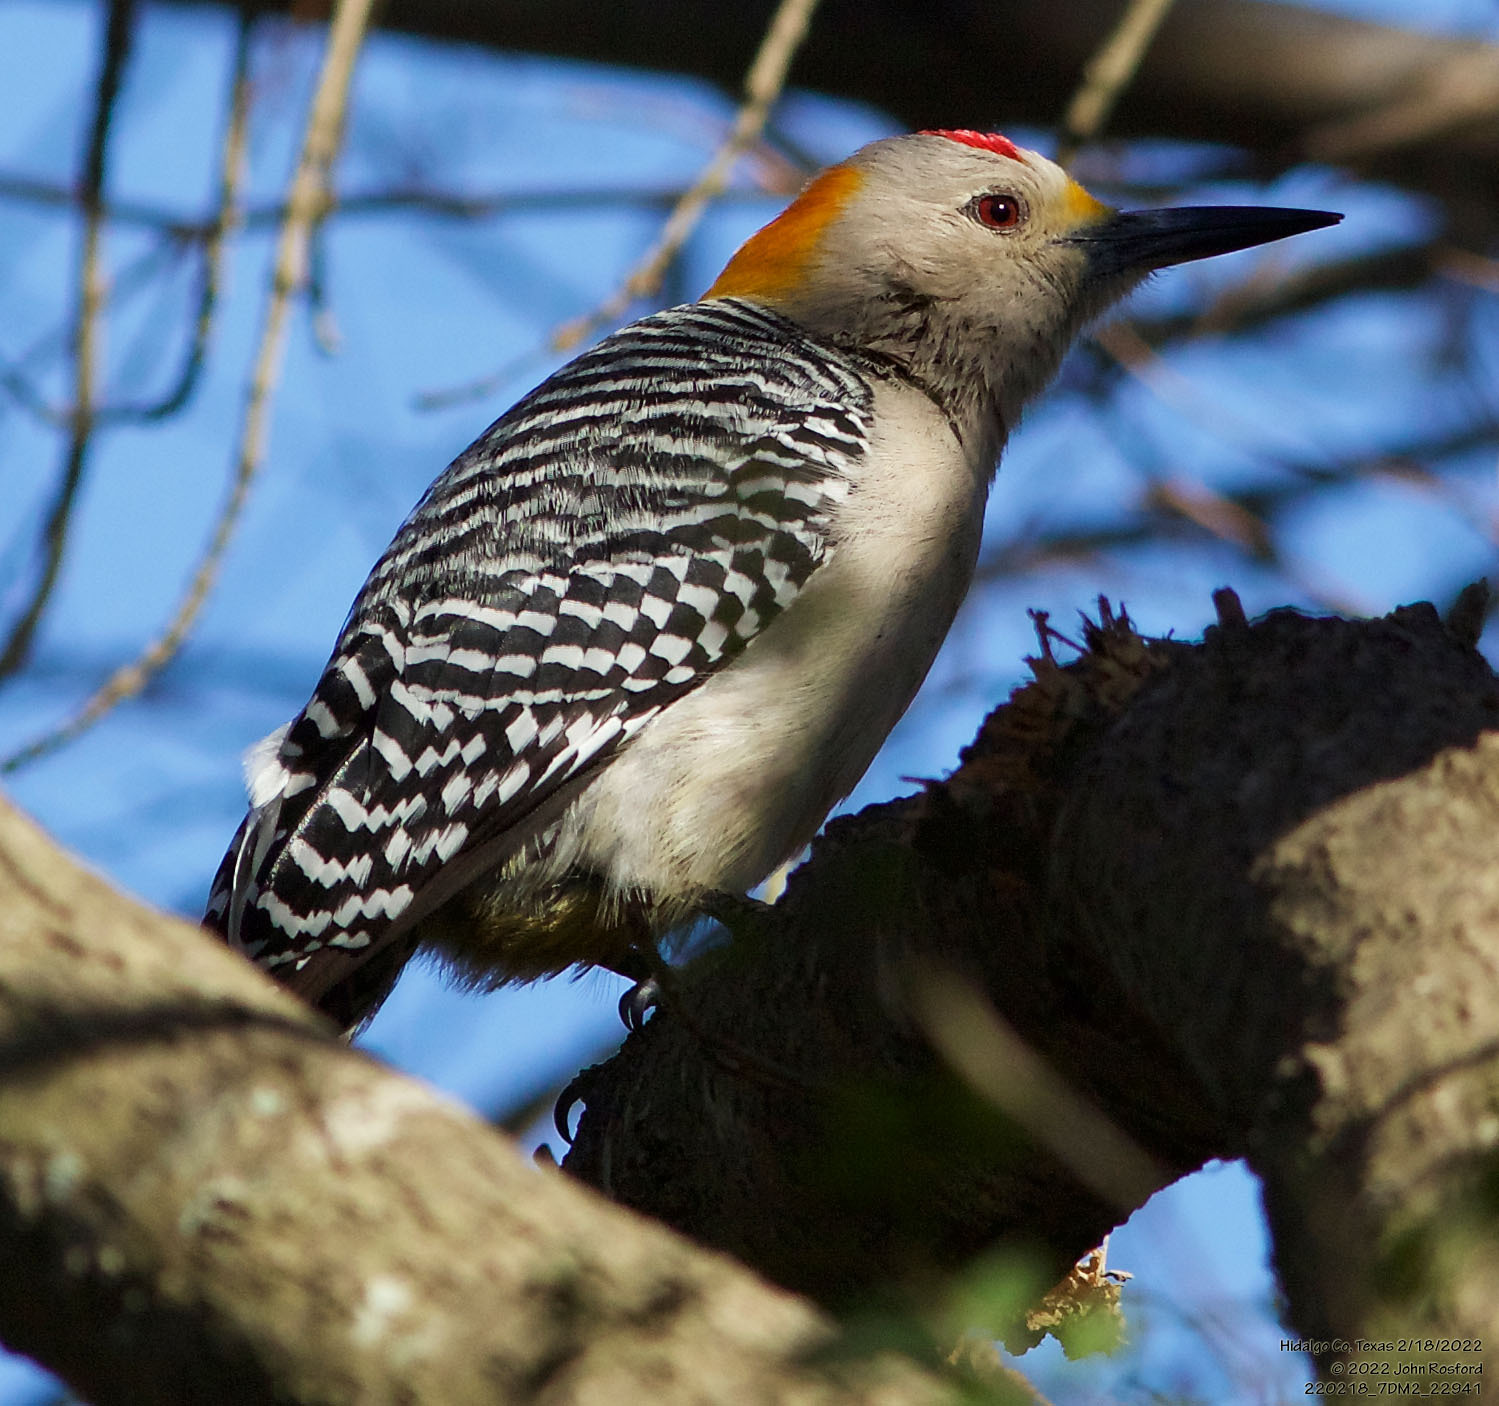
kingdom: Animalia
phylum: Chordata
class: Aves
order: Piciformes
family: Picidae
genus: Melanerpes
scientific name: Melanerpes aurifrons
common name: Golden-fronted woodpecker
